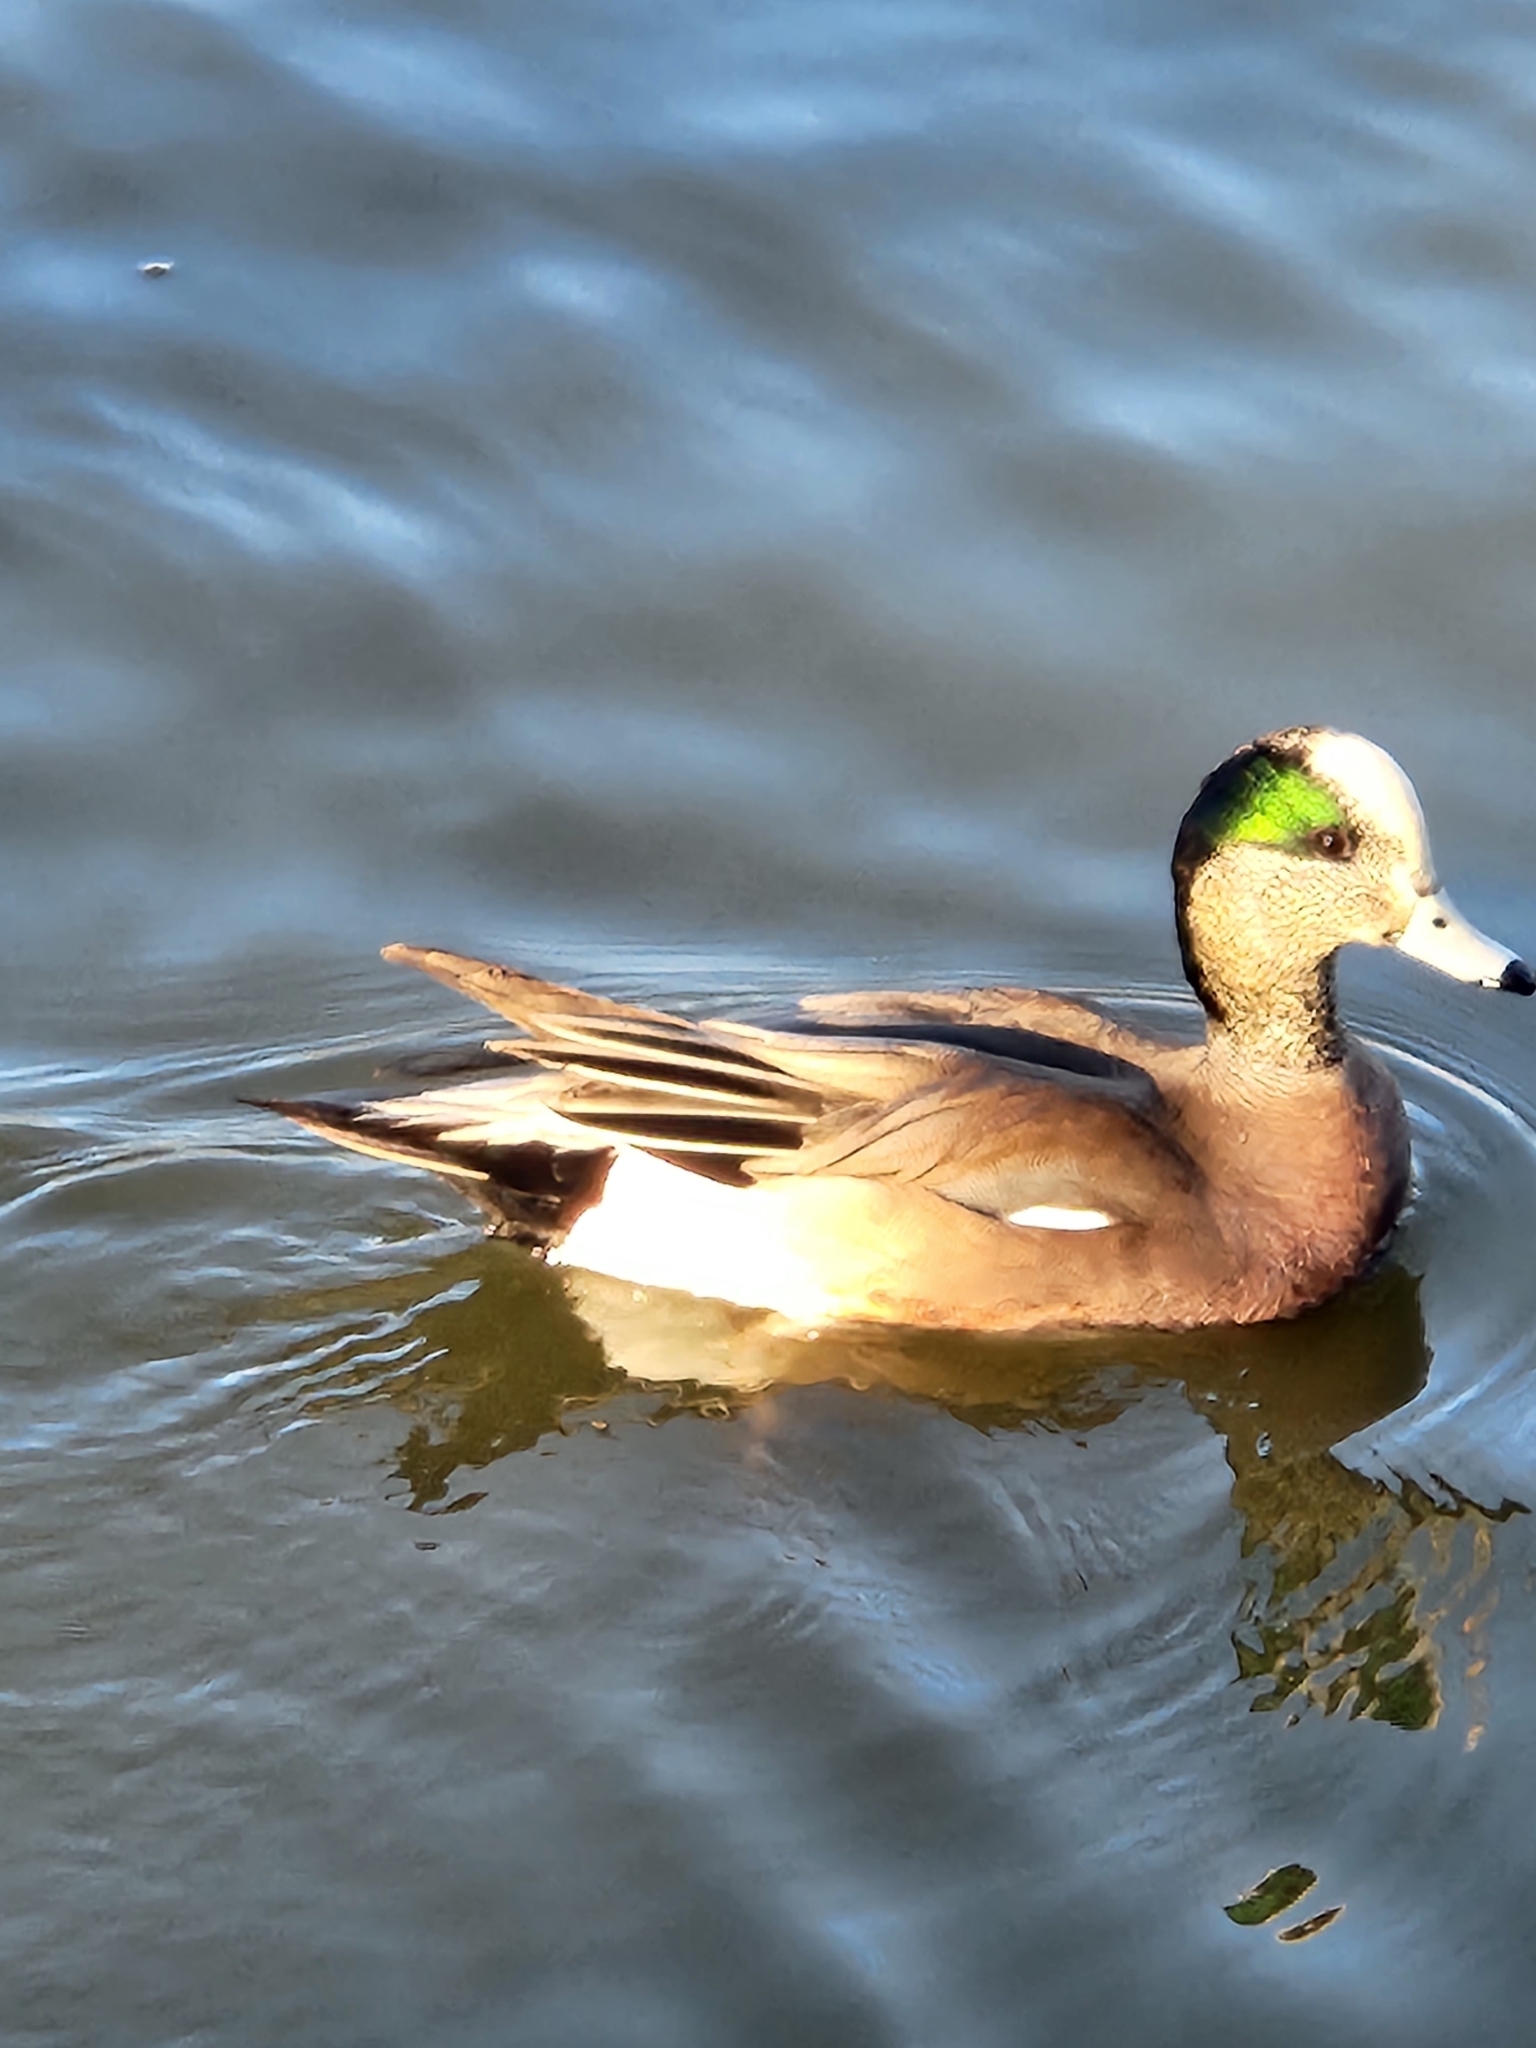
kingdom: Animalia
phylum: Chordata
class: Aves
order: Anseriformes
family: Anatidae
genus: Mareca
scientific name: Mareca americana
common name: American wigeon
